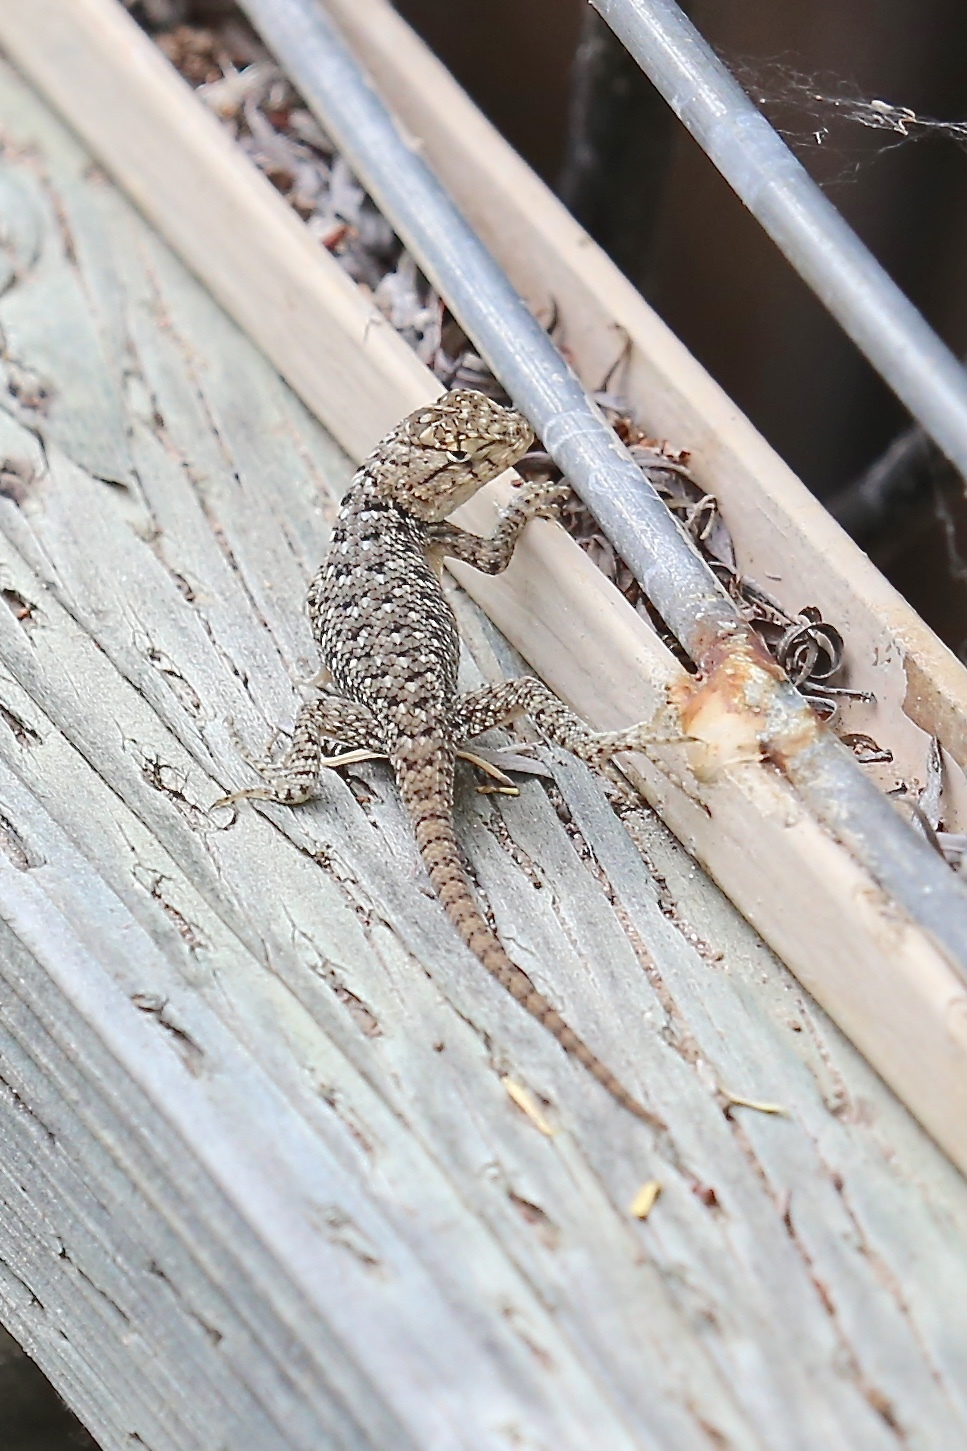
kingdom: Animalia
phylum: Chordata
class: Squamata
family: Phrynosomatidae
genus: Sceloporus
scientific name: Sceloporus bimaculosus
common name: Twin-spotted spiny lizard
